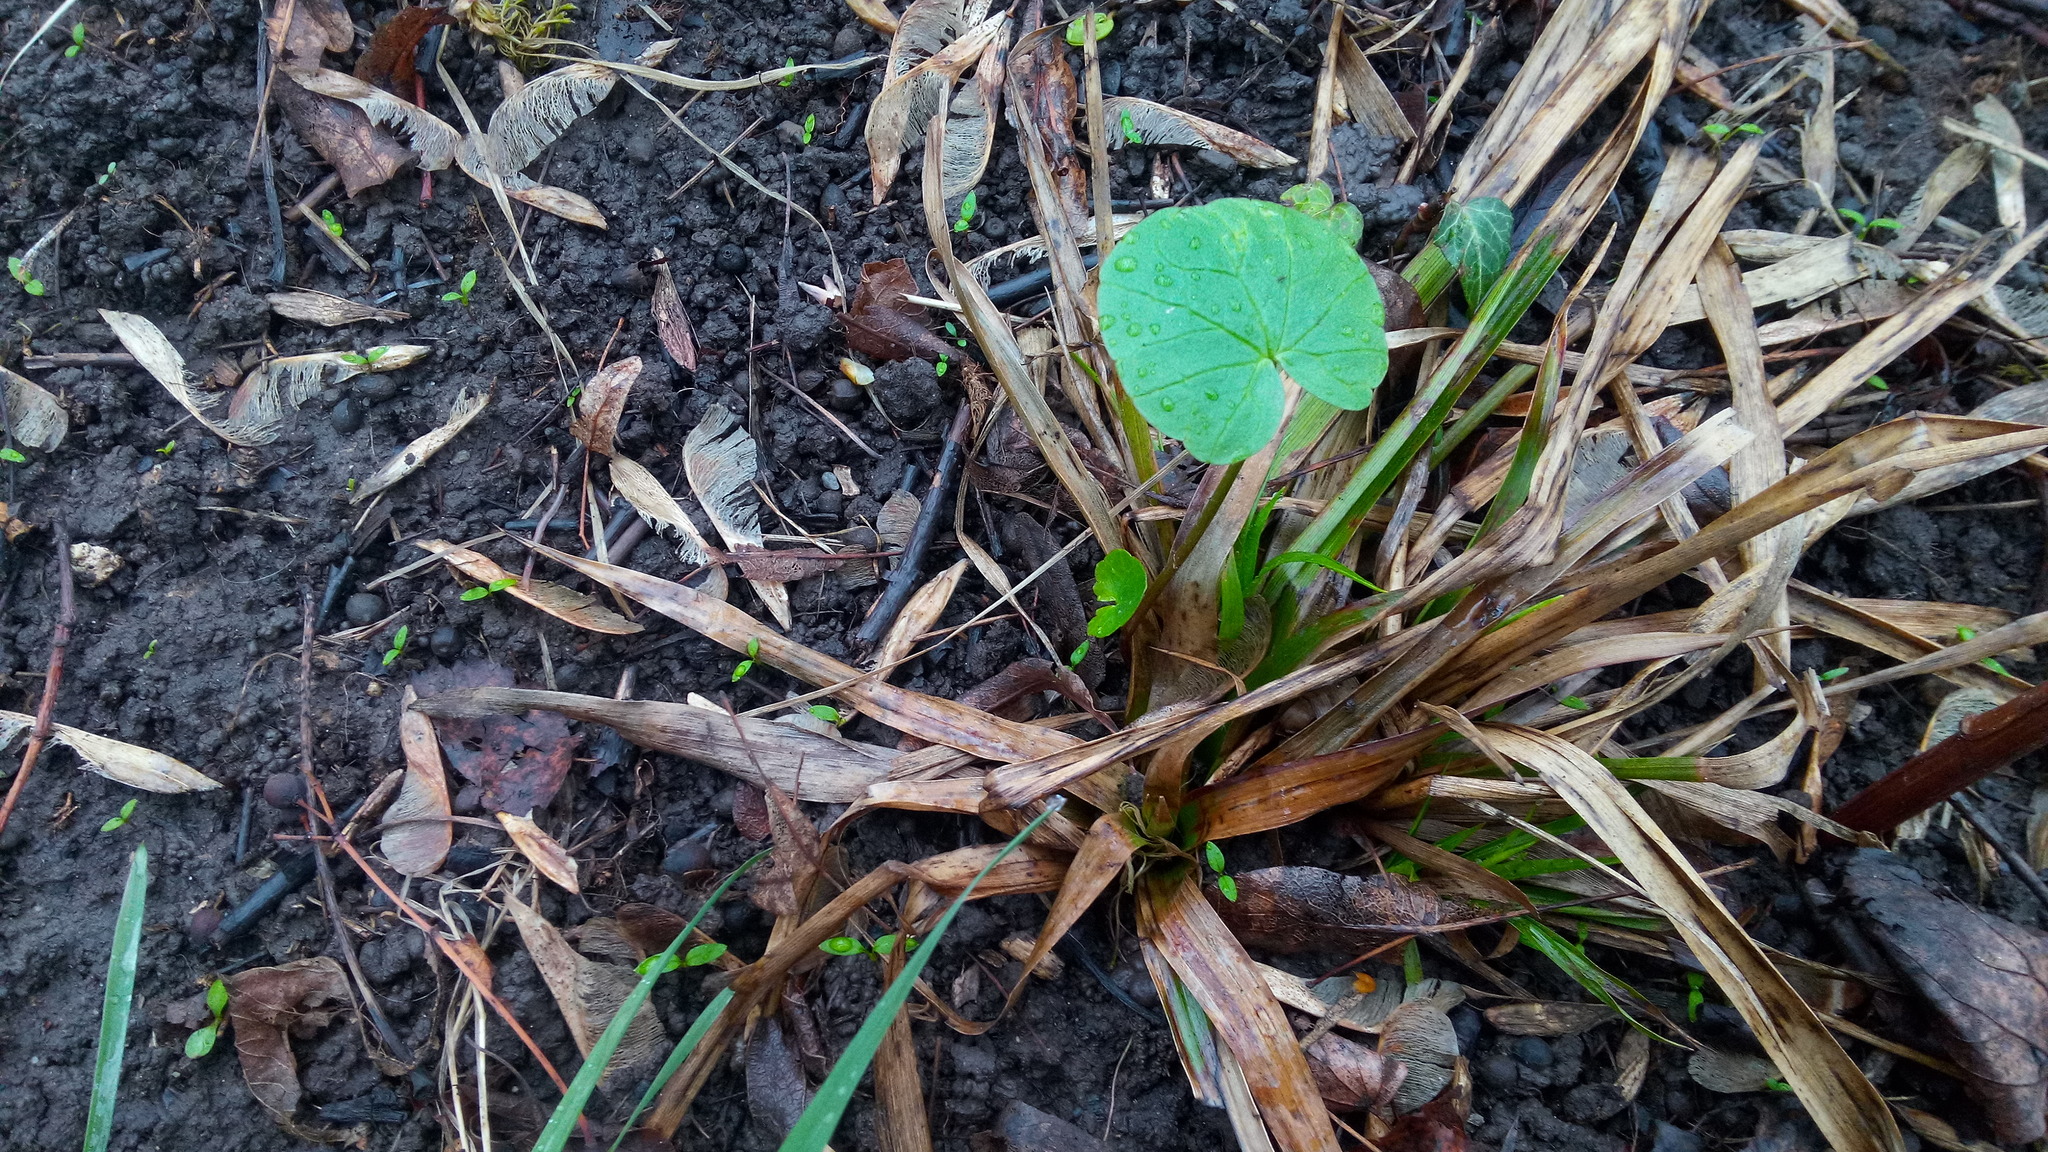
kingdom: Plantae
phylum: Tracheophyta
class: Magnoliopsida
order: Ranunculales
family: Ranunculaceae
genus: Ficaria
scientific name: Ficaria verna
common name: Lesser celandine
